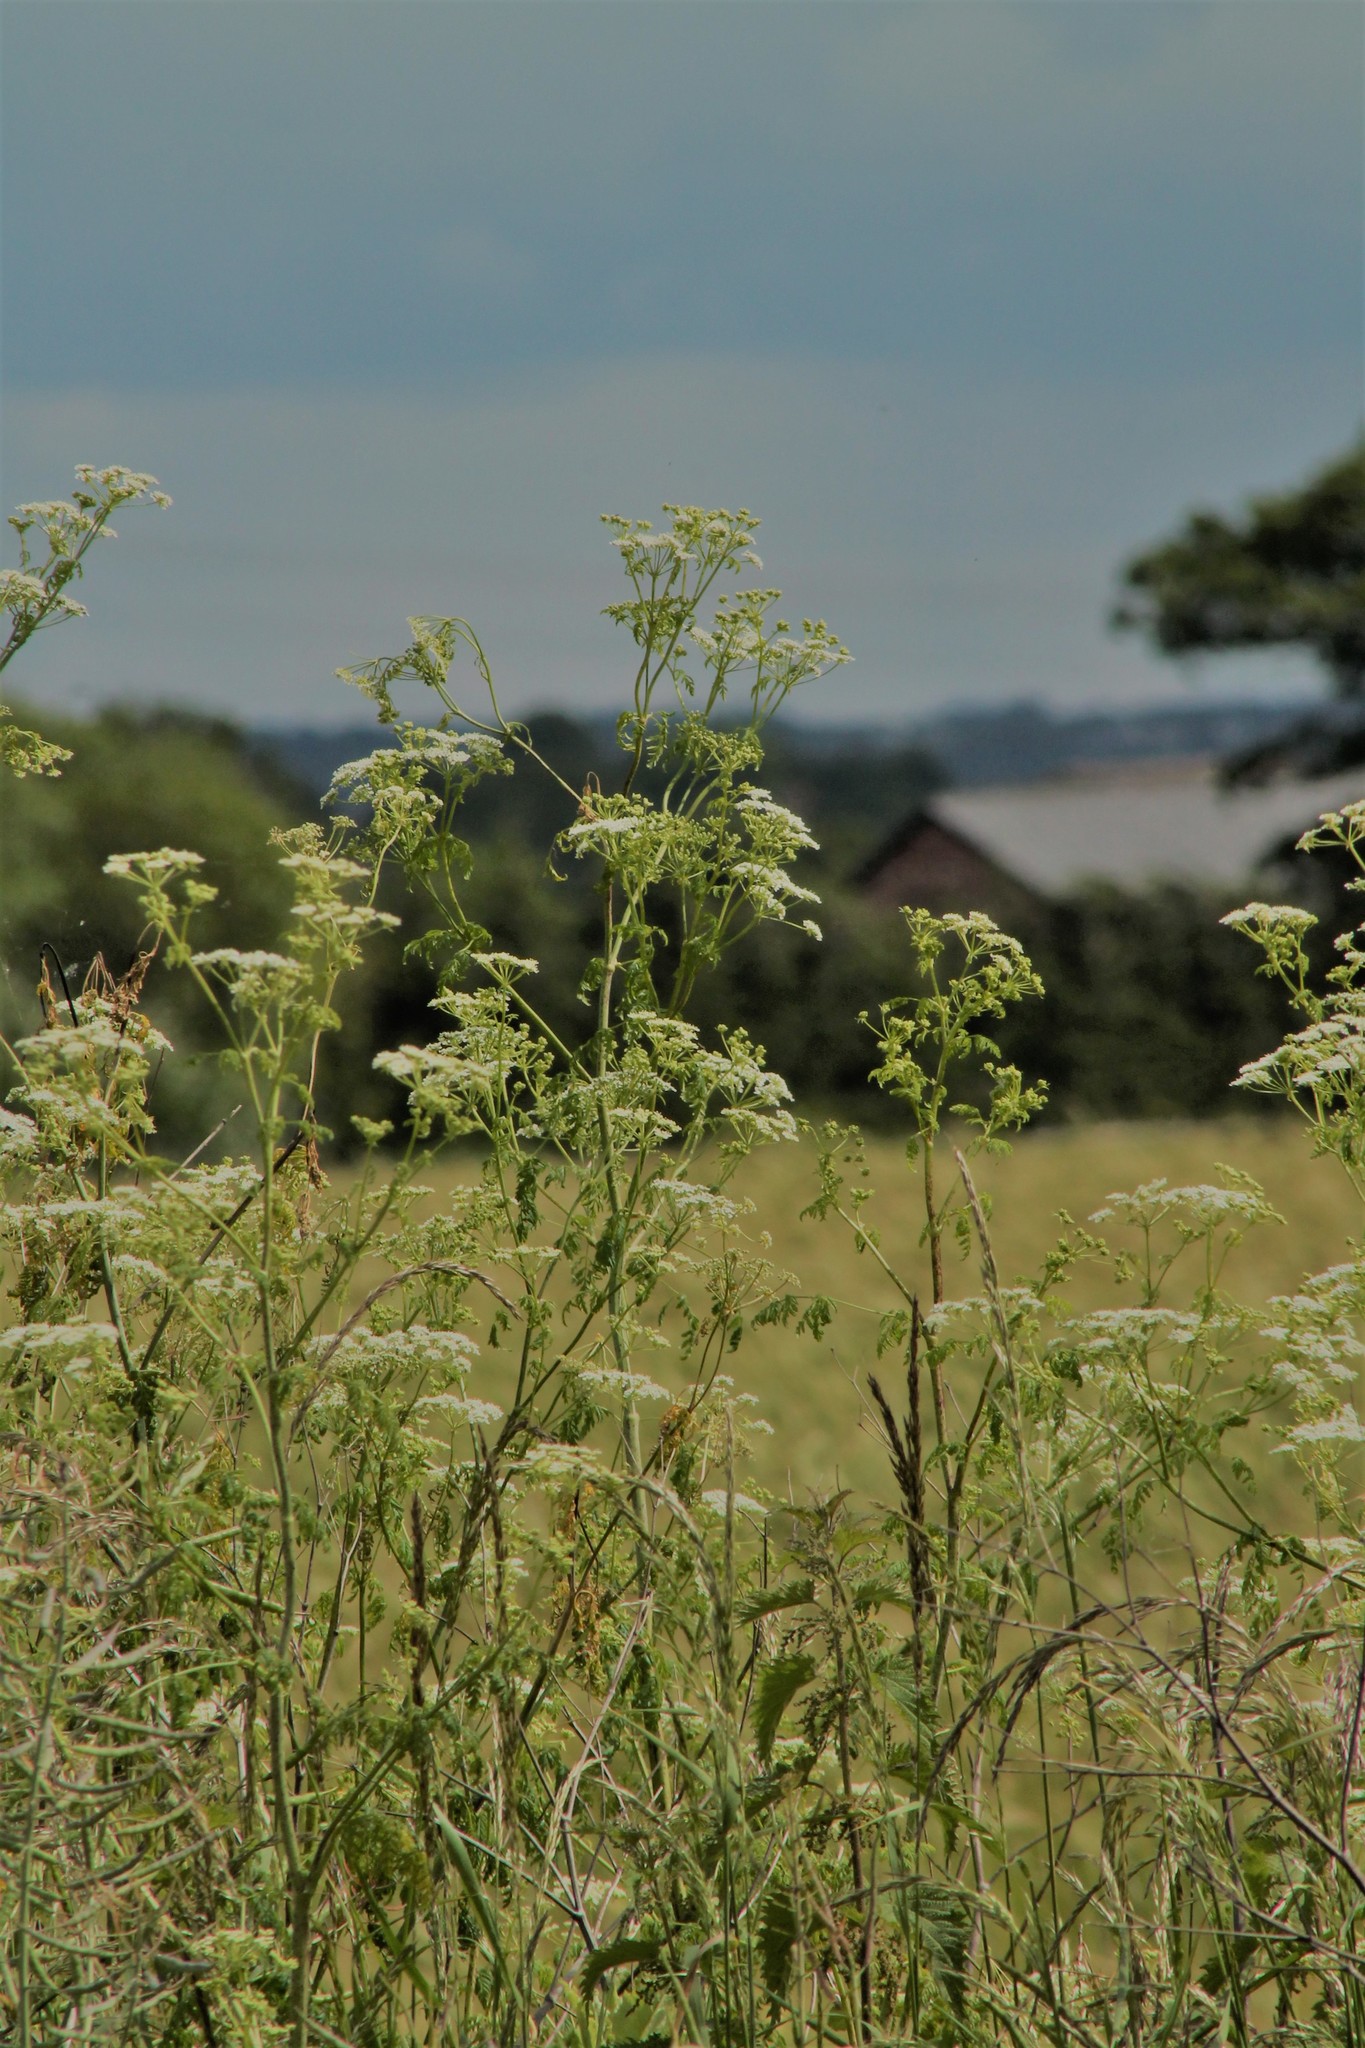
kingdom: Plantae
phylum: Tracheophyta
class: Magnoliopsida
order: Apiales
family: Apiaceae
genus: Conium
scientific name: Conium maculatum
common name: Hemlock
